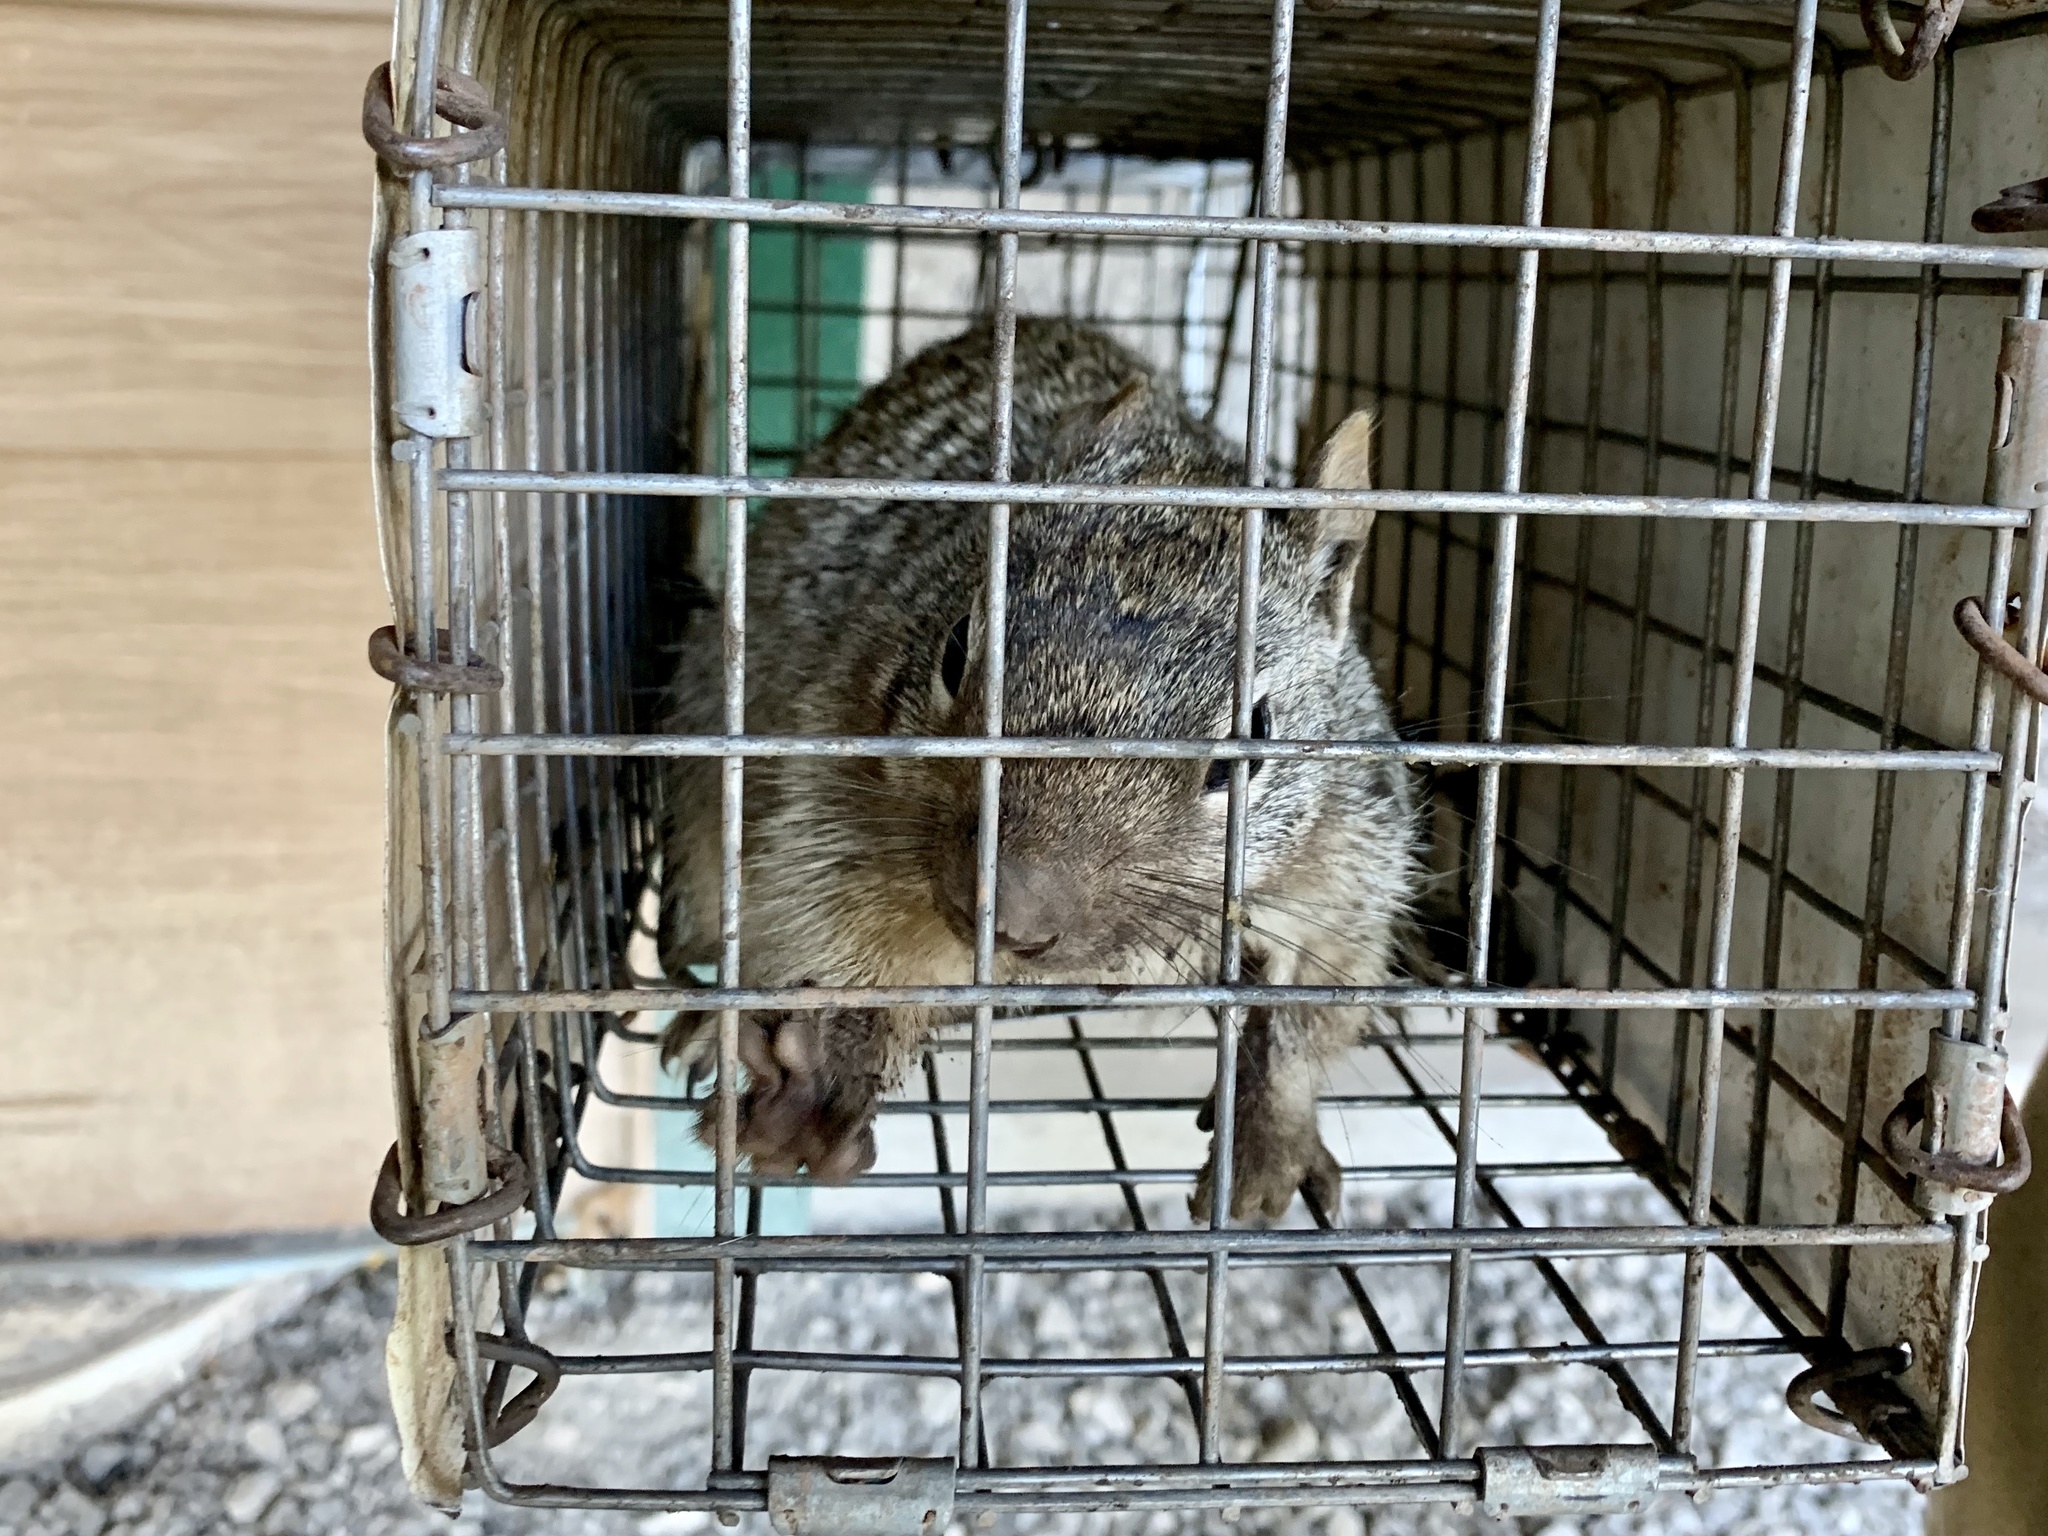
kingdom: Animalia
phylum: Chordata
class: Mammalia
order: Rodentia
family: Sciuridae
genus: Otospermophilus
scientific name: Otospermophilus variegatus
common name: Rock squirrel
